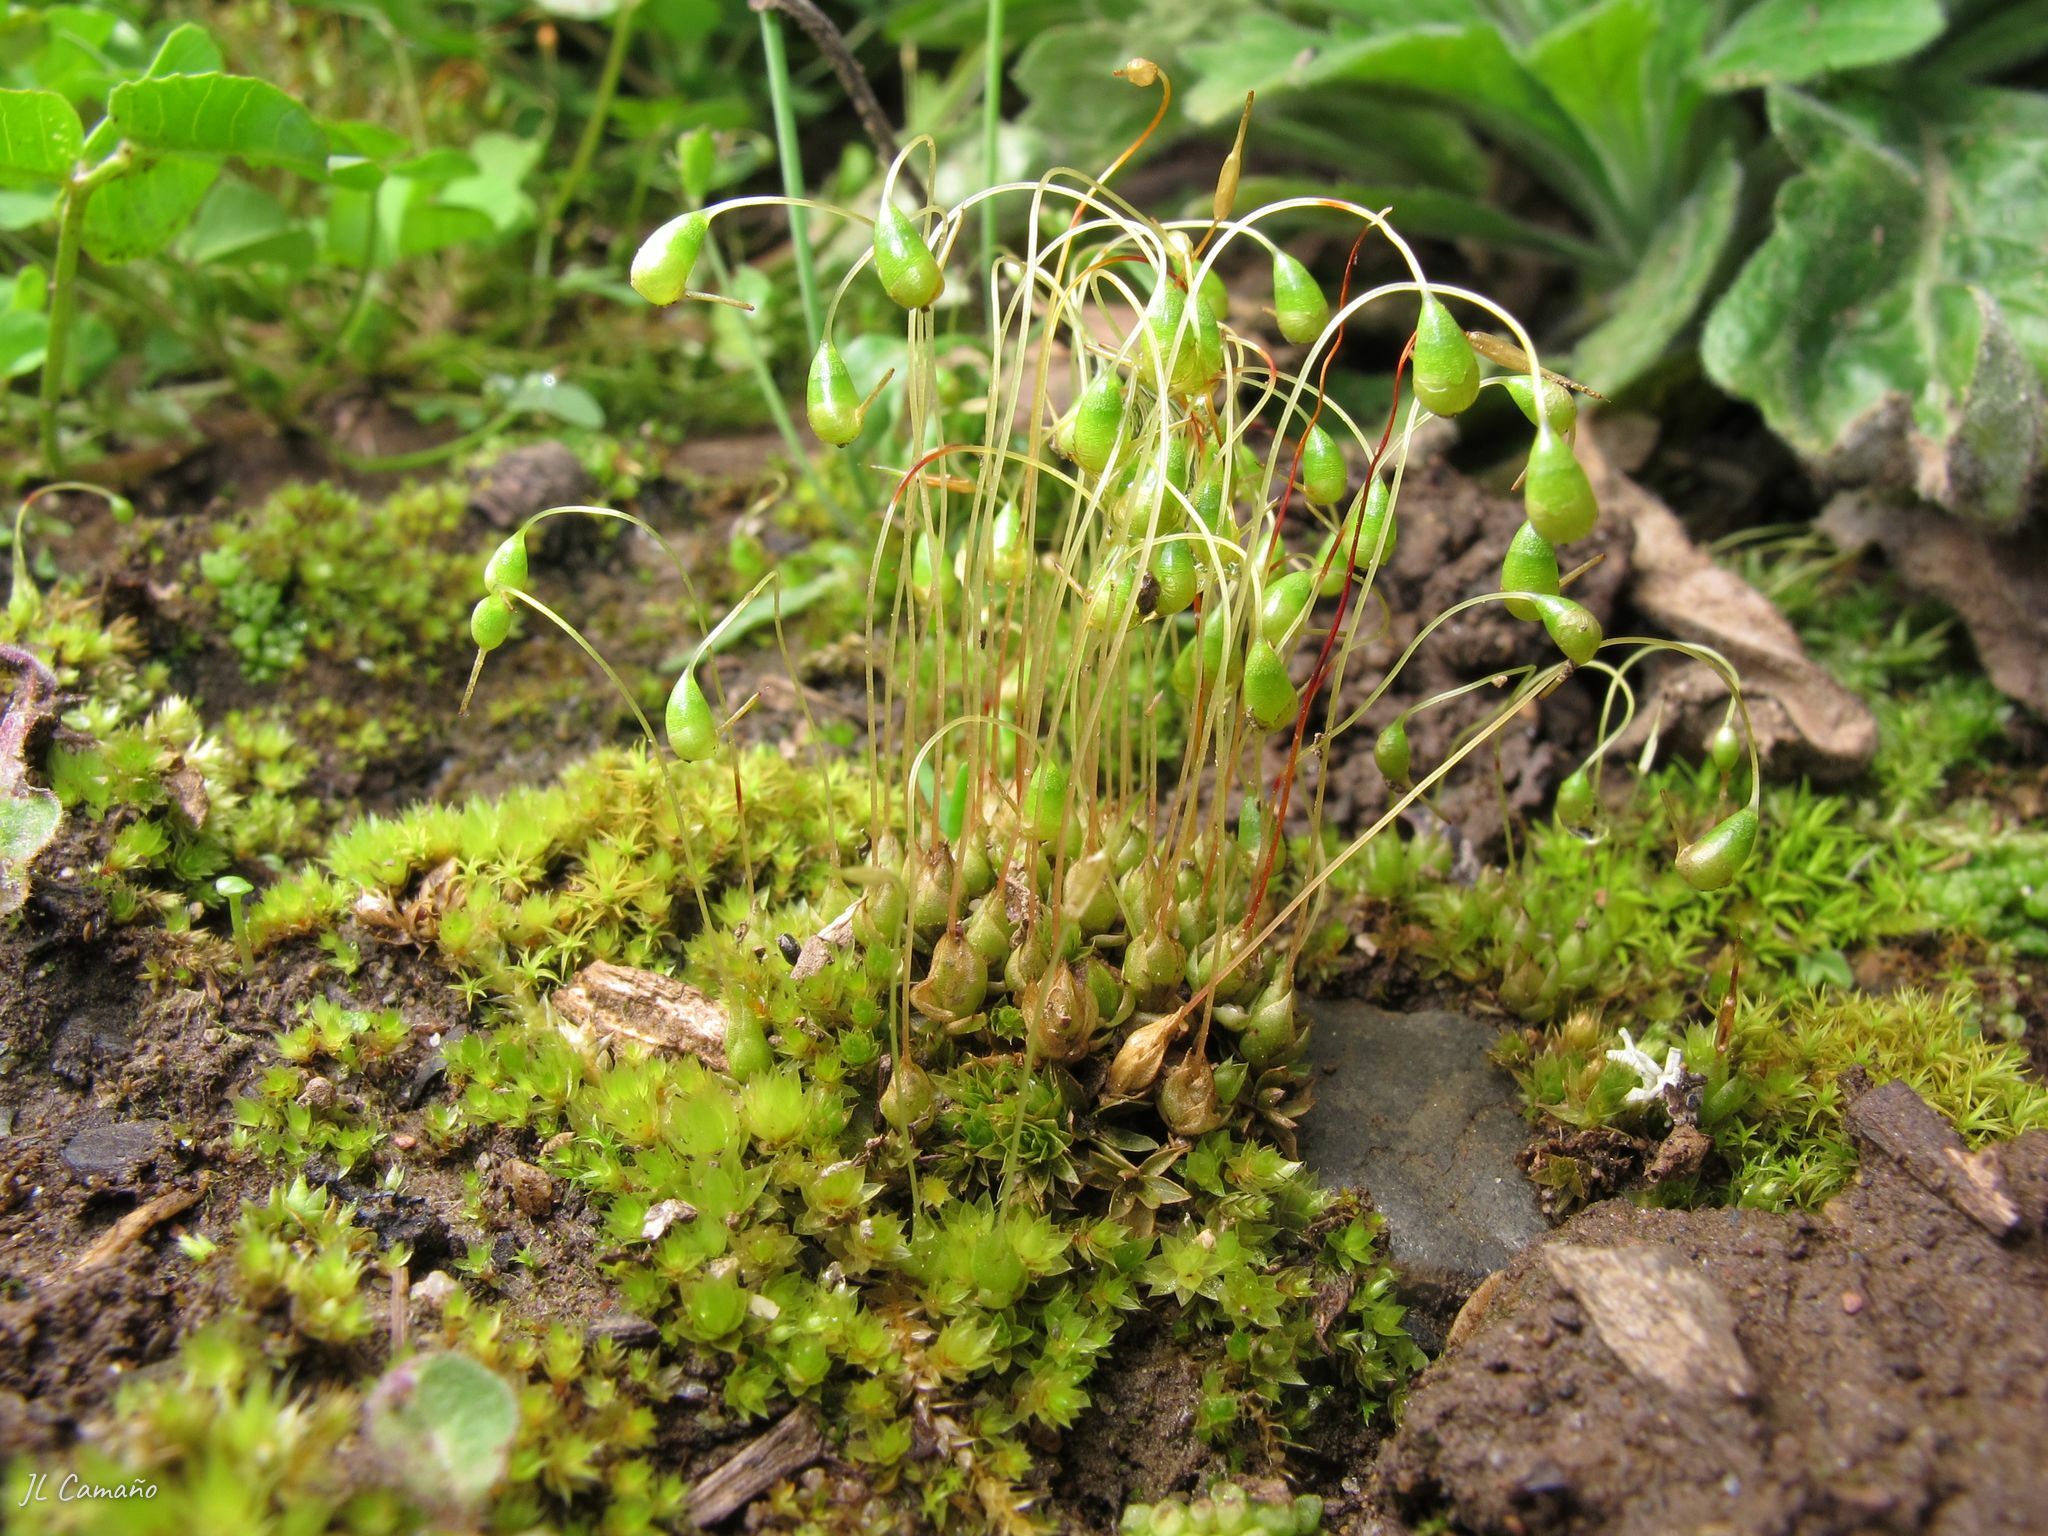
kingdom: Plantae
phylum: Bryophyta
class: Bryopsida
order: Funariales
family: Funariaceae
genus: Funaria
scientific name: Funaria hygrometrica
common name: Common cord moss
